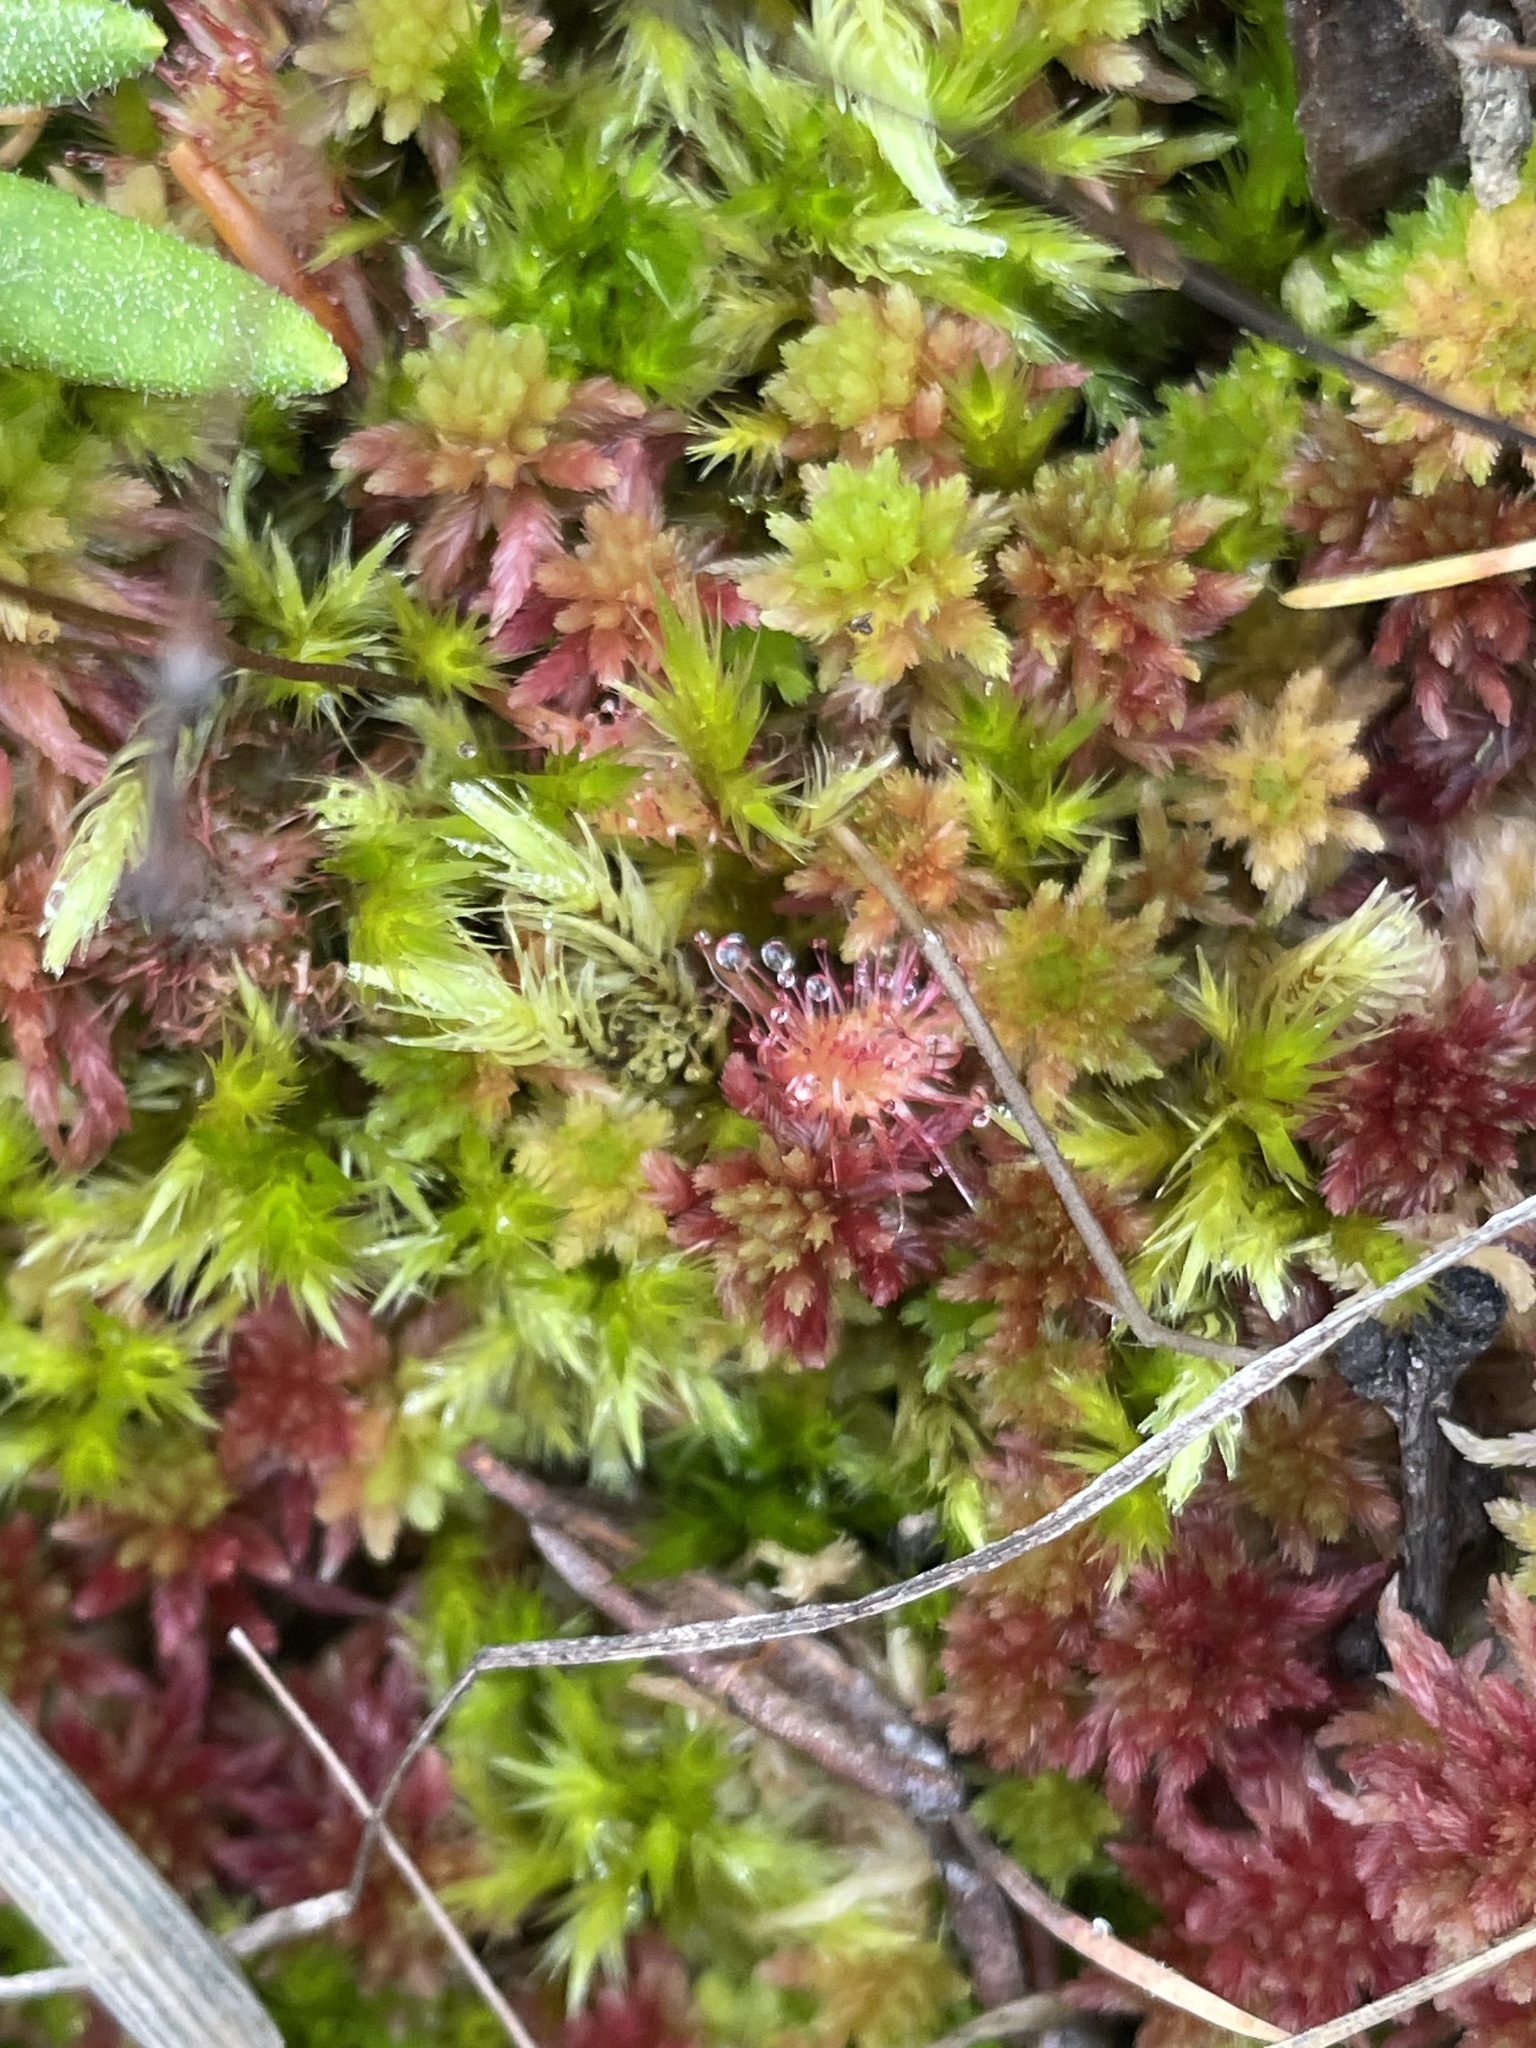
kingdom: Plantae
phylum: Tracheophyta
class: Magnoliopsida
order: Caryophyllales
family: Droseraceae
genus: Drosera
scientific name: Drosera rotundifolia
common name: Round-leaved sundew
